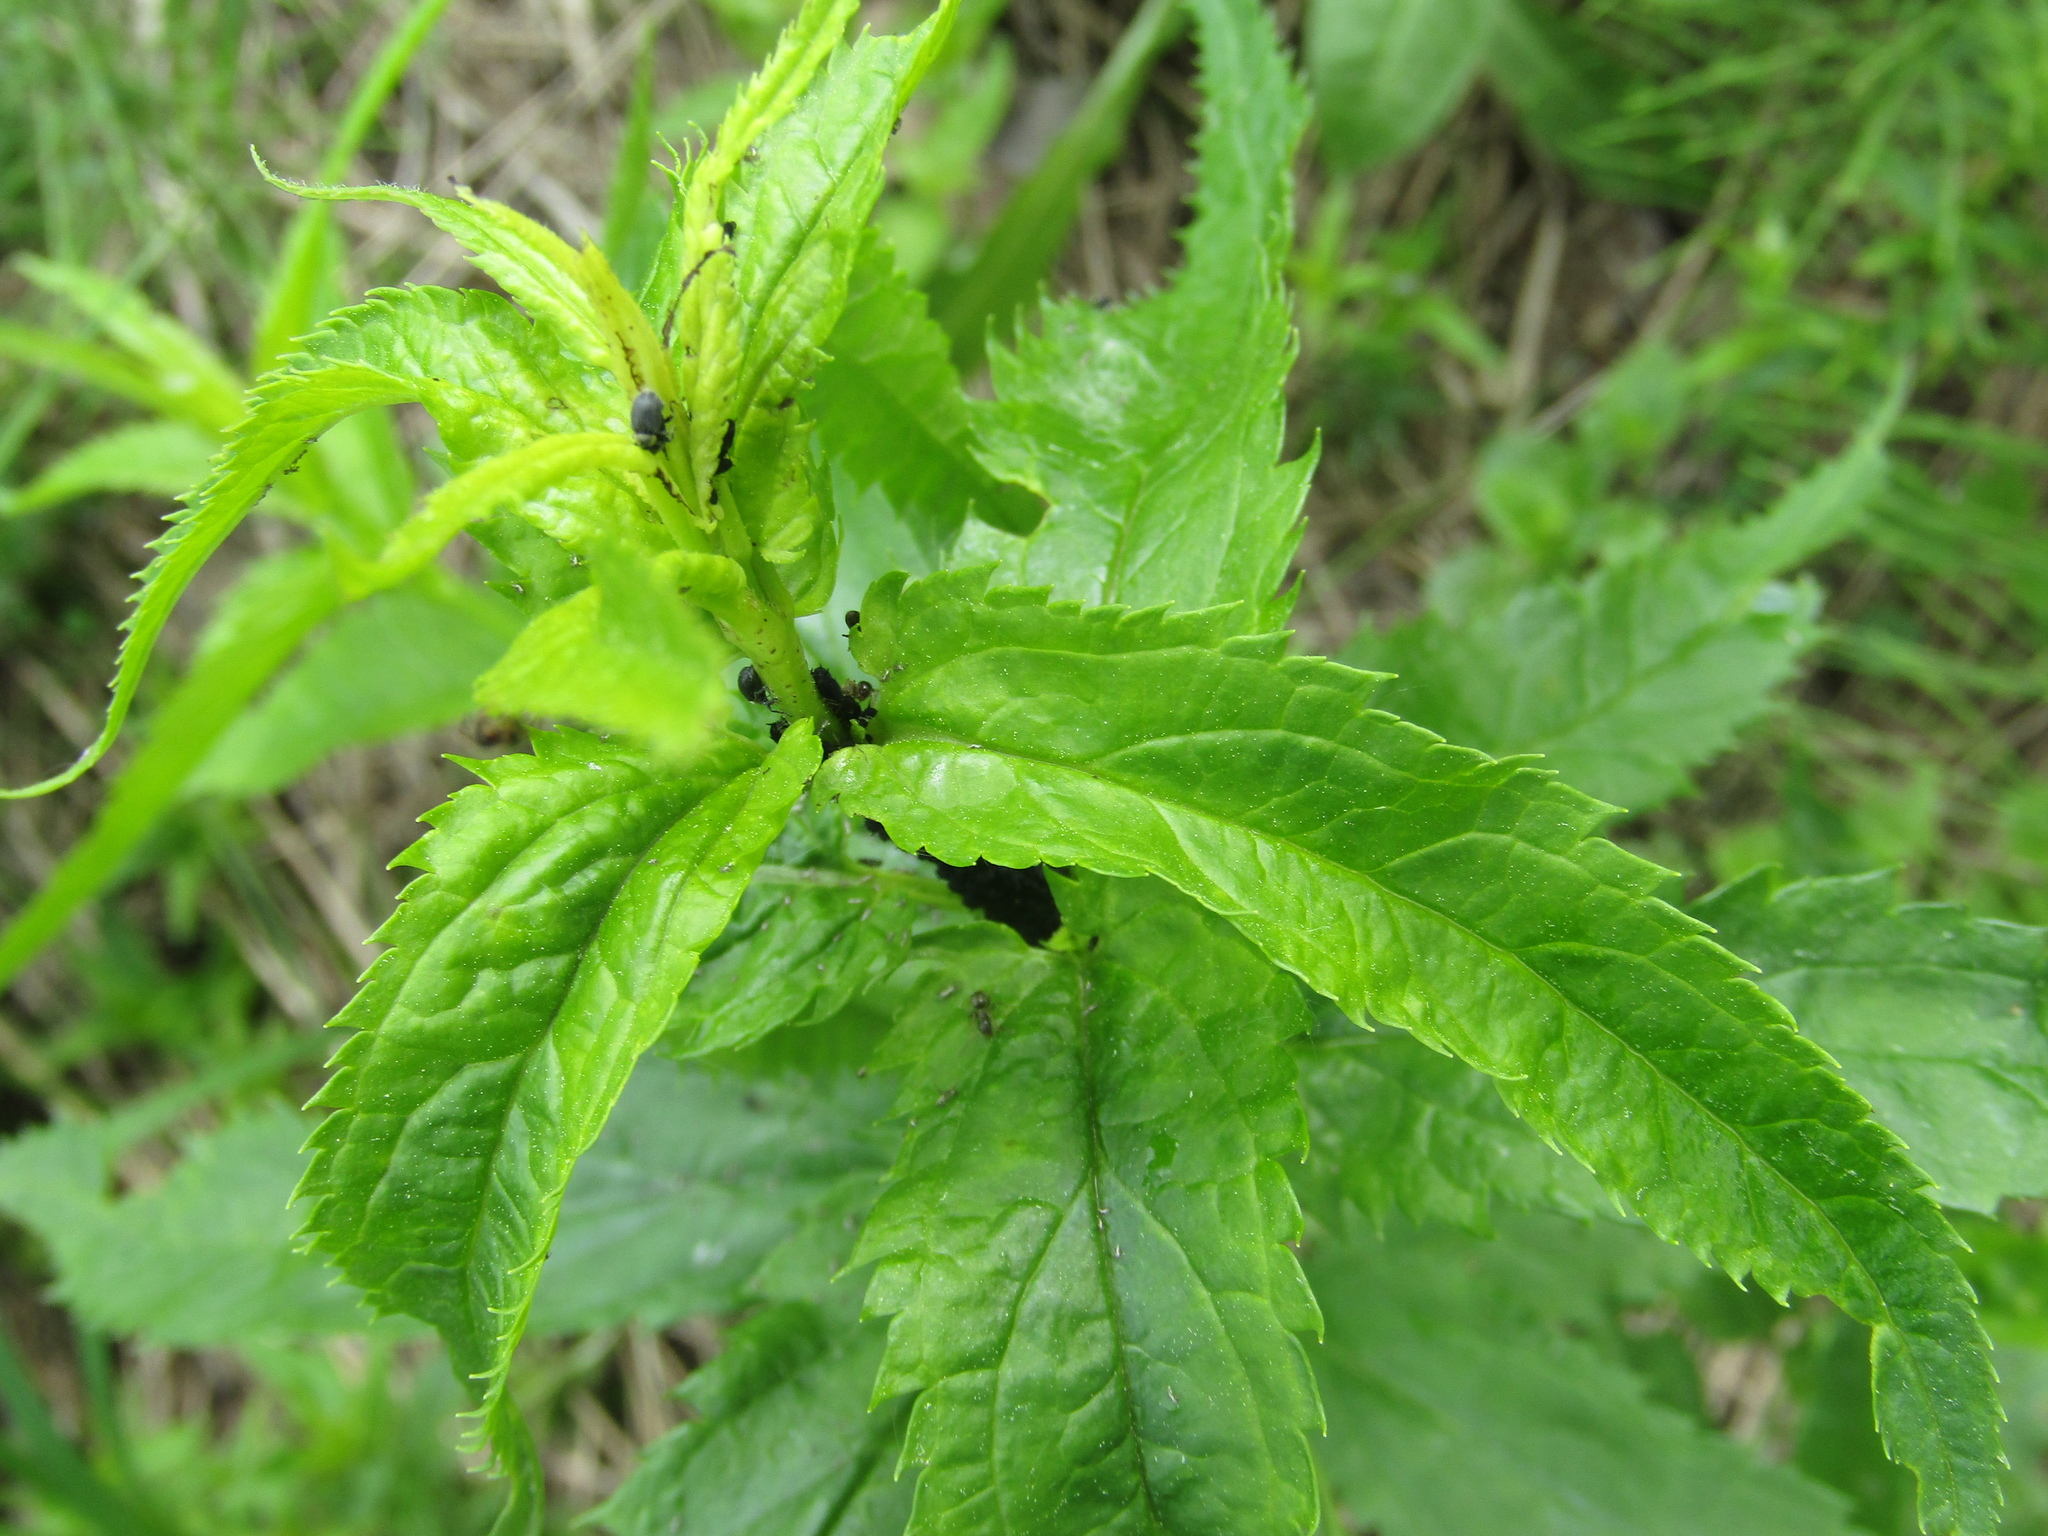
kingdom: Plantae
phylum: Tracheophyta
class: Magnoliopsida
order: Lamiales
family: Plantaginaceae
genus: Veronica
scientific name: Veronica longifolia
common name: Garden speedwell
